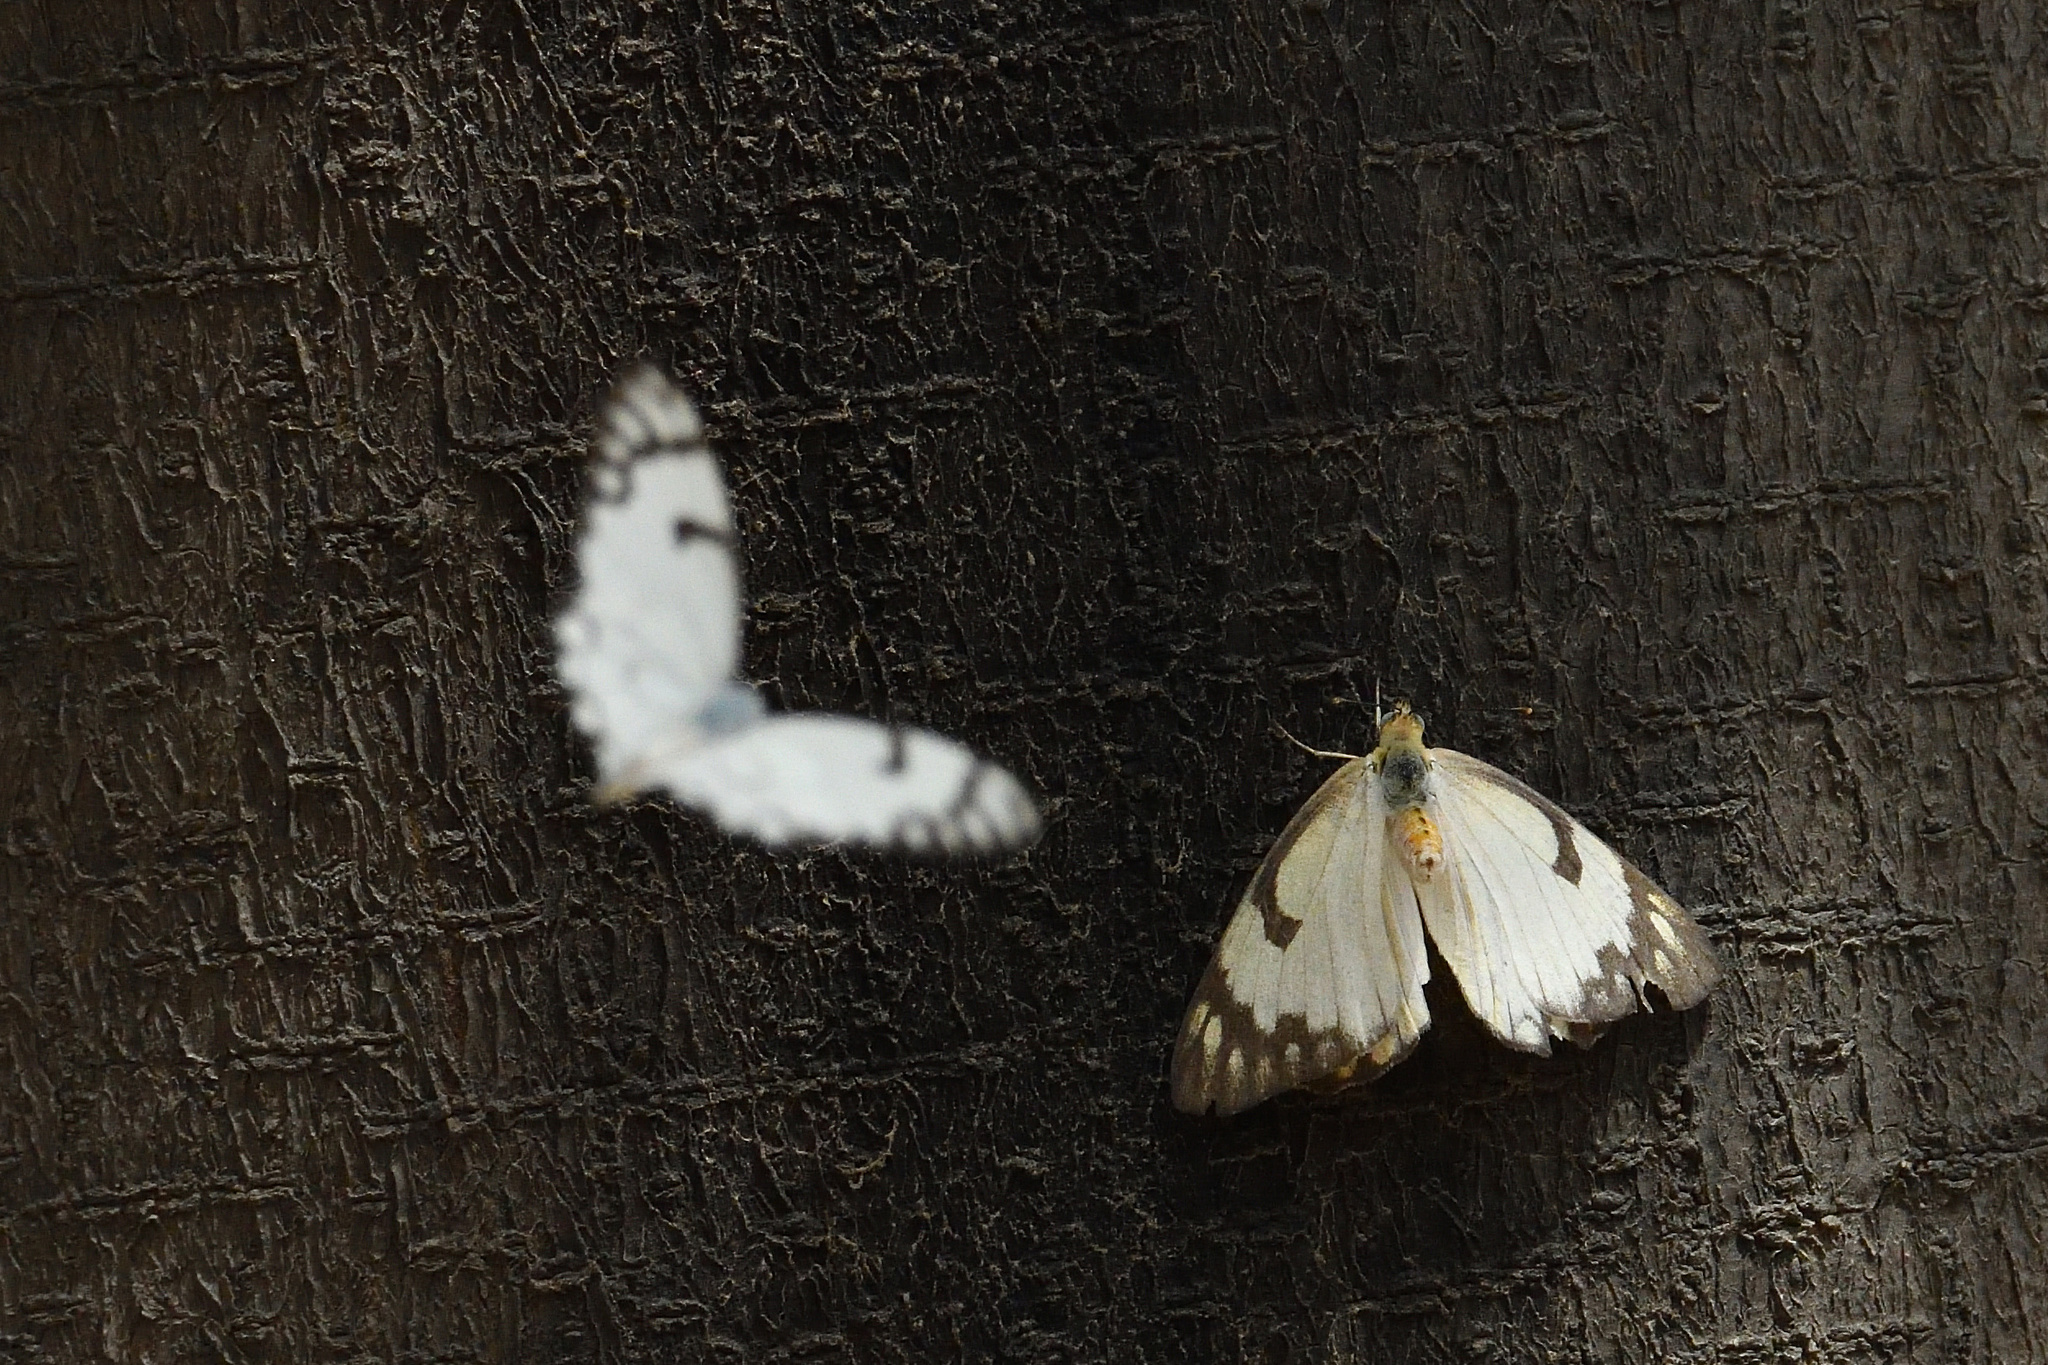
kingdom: Animalia
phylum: Arthropoda
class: Insecta
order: Lepidoptera
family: Pieridae
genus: Belenois
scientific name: Belenois aurota
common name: Brown-veined white
